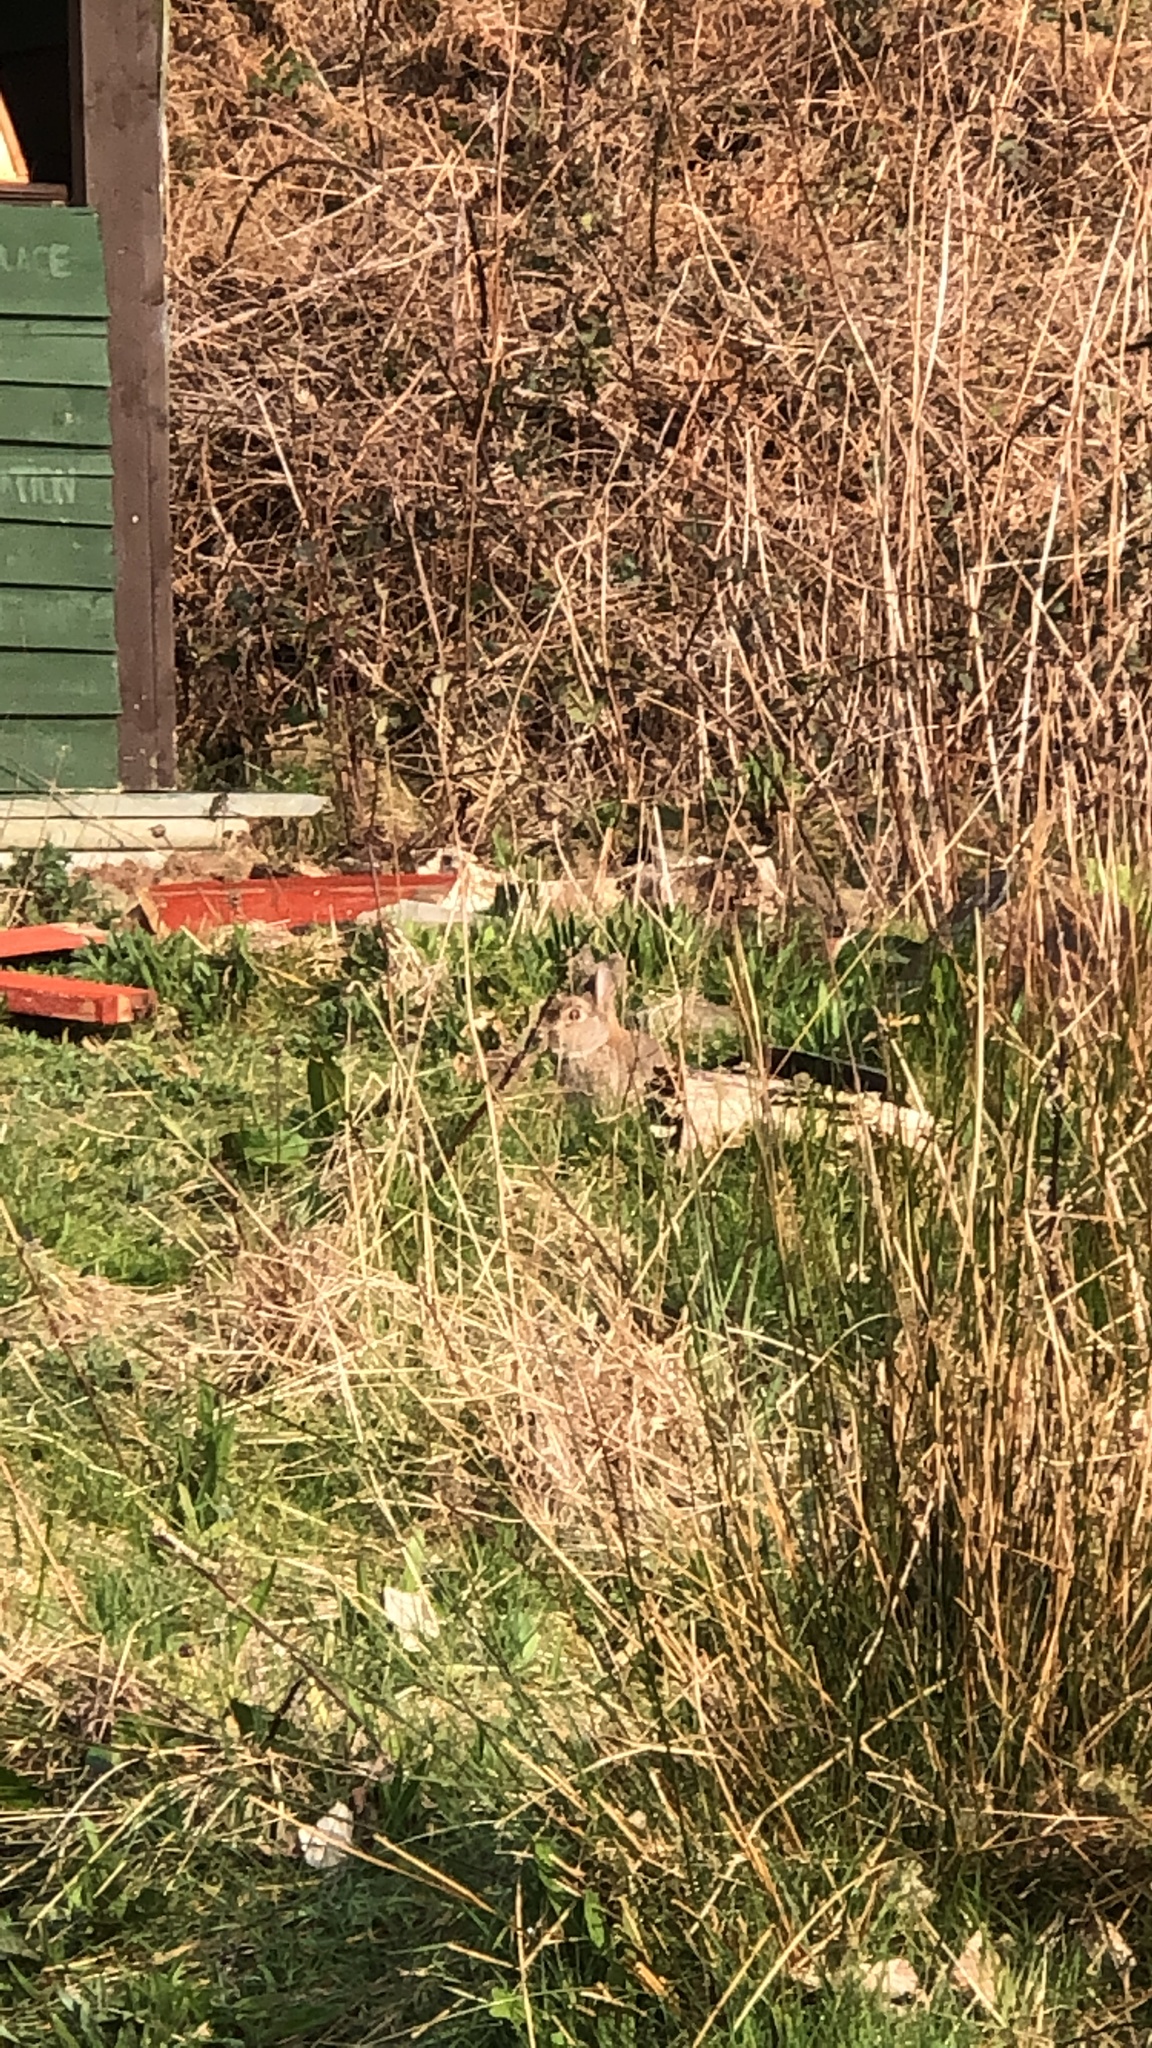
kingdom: Animalia
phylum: Chordata
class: Mammalia
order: Lagomorpha
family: Leporidae
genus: Oryctolagus
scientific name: Oryctolagus cuniculus
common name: European rabbit
